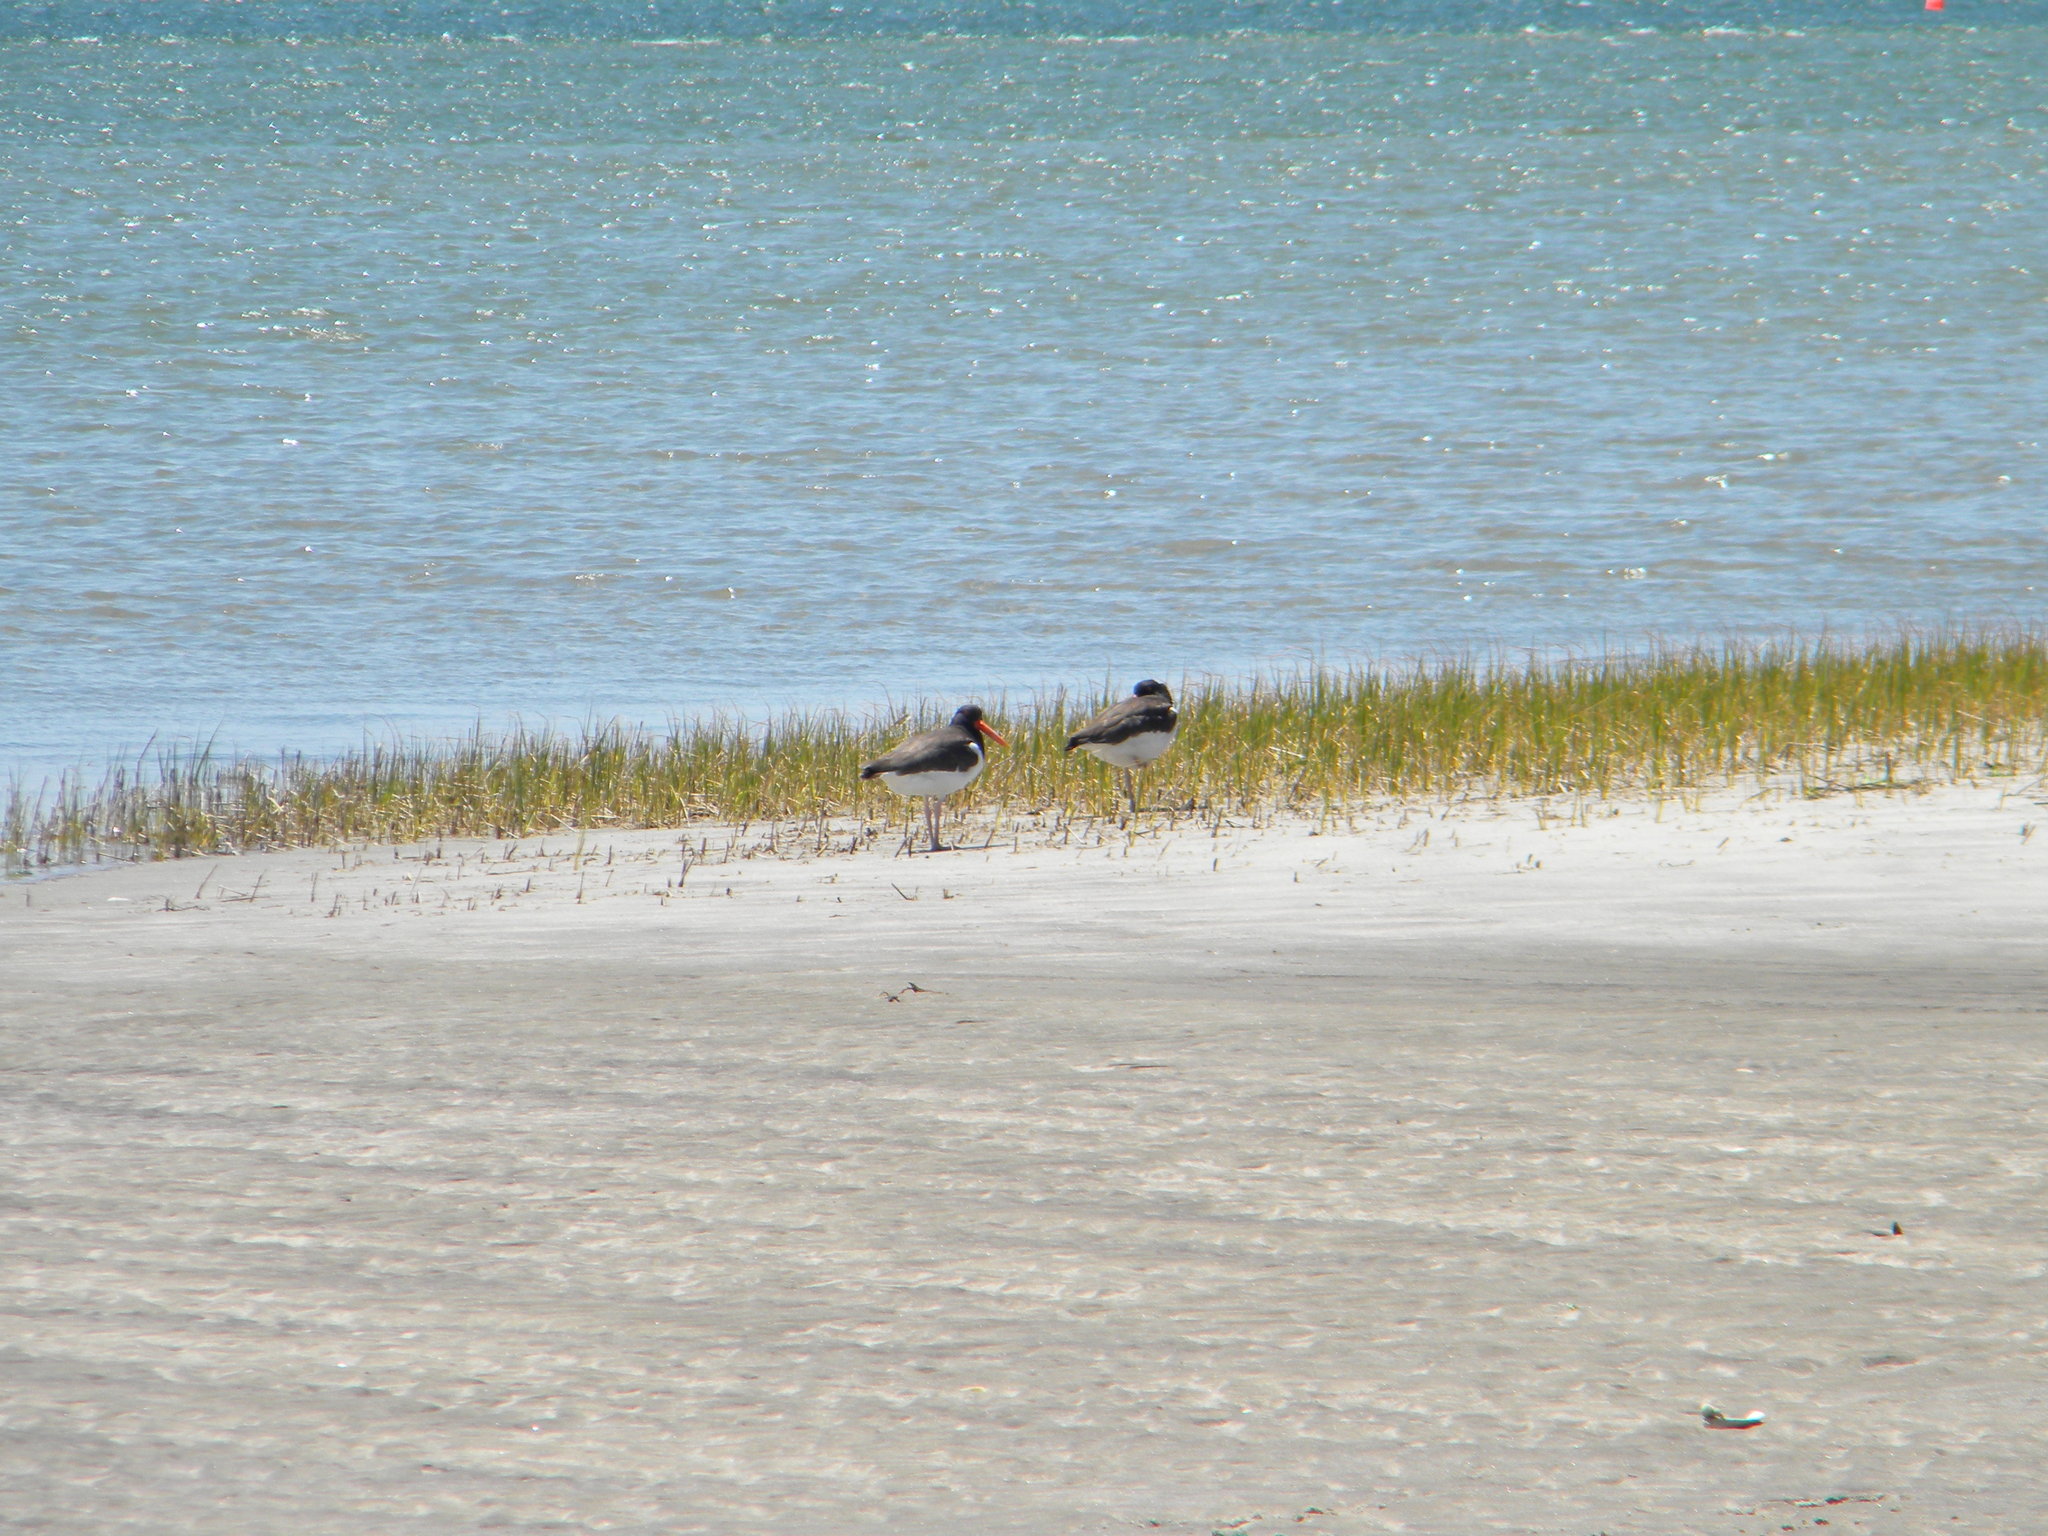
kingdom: Animalia
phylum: Chordata
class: Aves
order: Charadriiformes
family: Haematopodidae
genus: Haematopus
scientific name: Haematopus palliatus
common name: American oystercatcher
